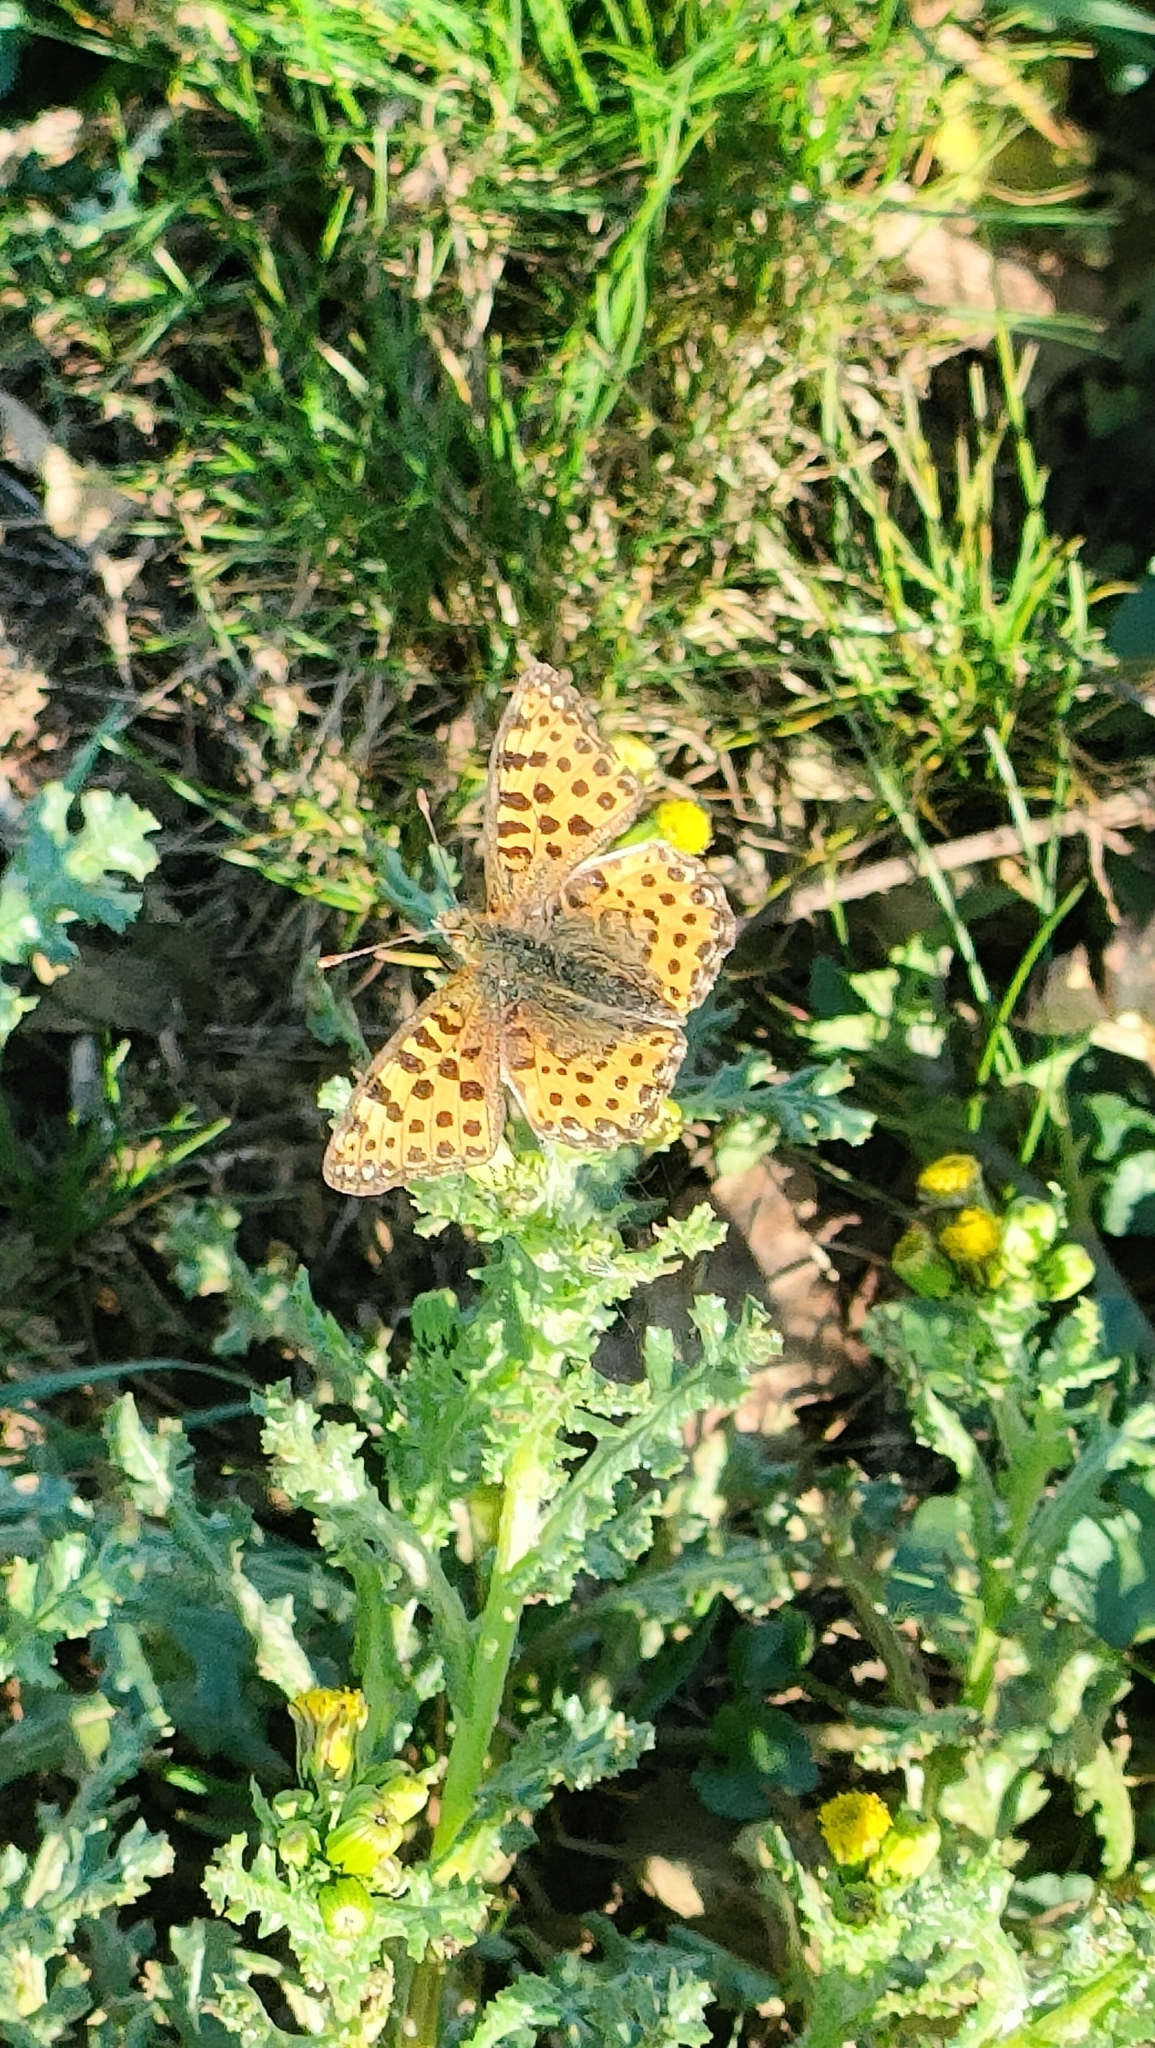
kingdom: Animalia
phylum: Arthropoda
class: Insecta
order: Lepidoptera
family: Nymphalidae
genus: Issoria
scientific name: Issoria lathonia
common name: Queen of spain fritillary
